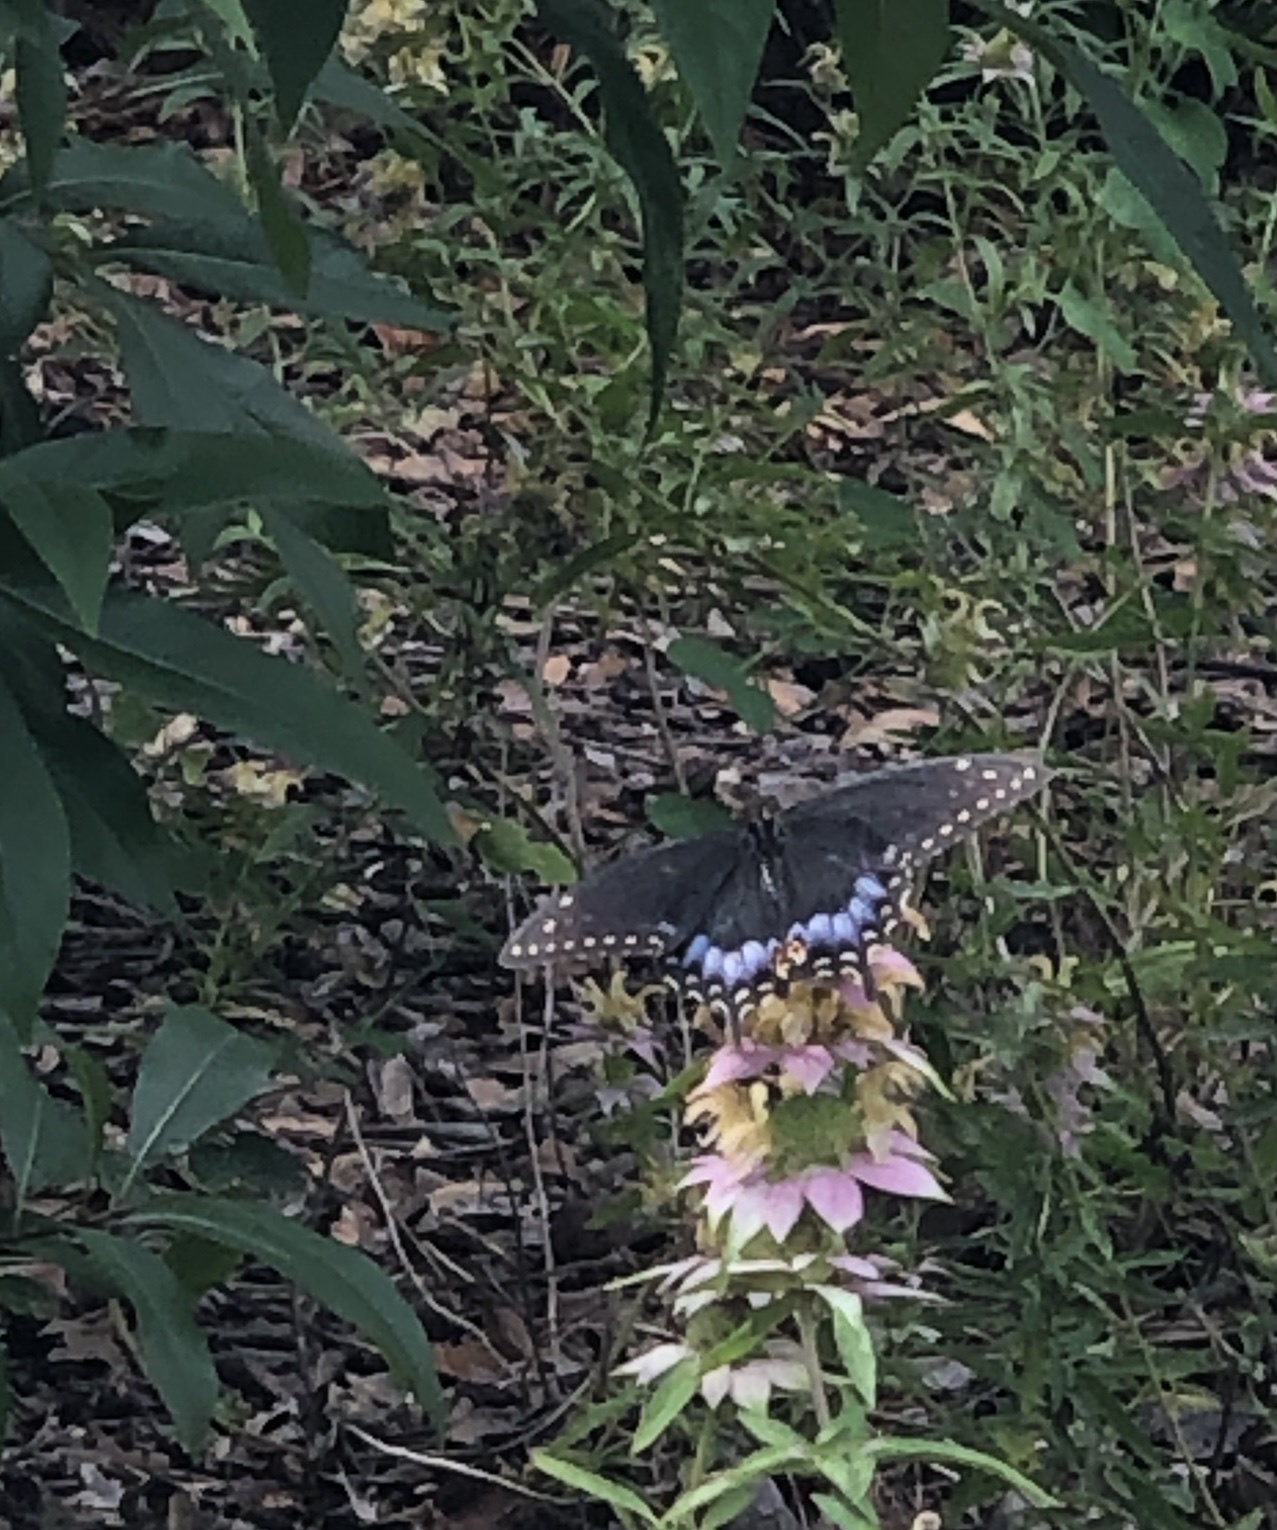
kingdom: Animalia
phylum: Arthropoda
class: Insecta
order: Lepidoptera
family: Papilionidae
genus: Papilio
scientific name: Papilio polyxenes
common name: Black swallowtail
